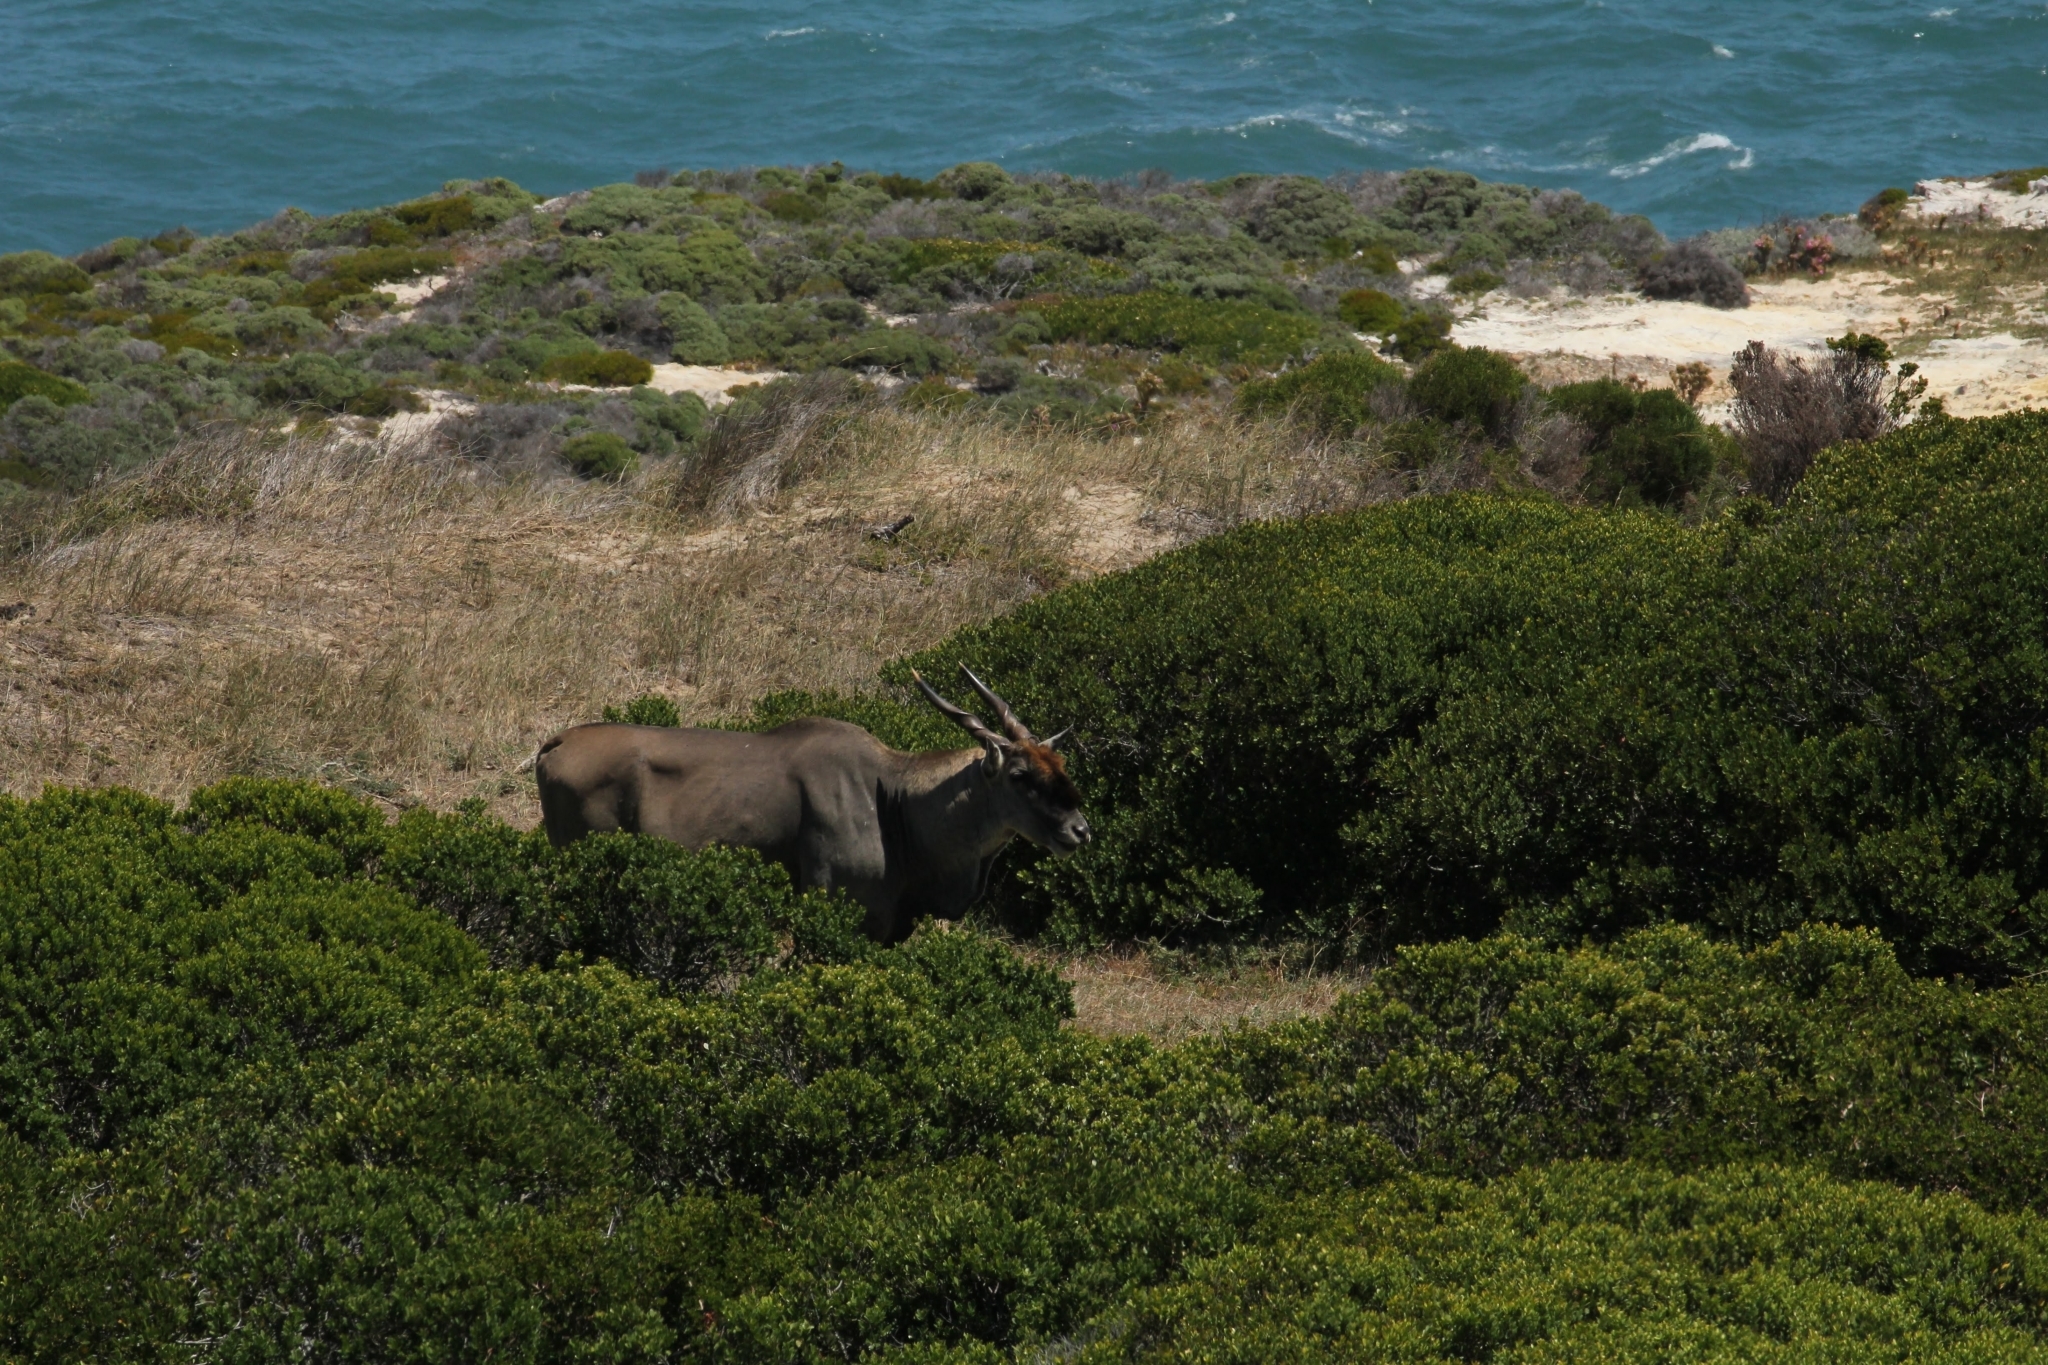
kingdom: Animalia
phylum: Chordata
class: Mammalia
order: Artiodactyla
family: Bovidae
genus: Taurotragus
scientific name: Taurotragus oryx
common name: Common eland
